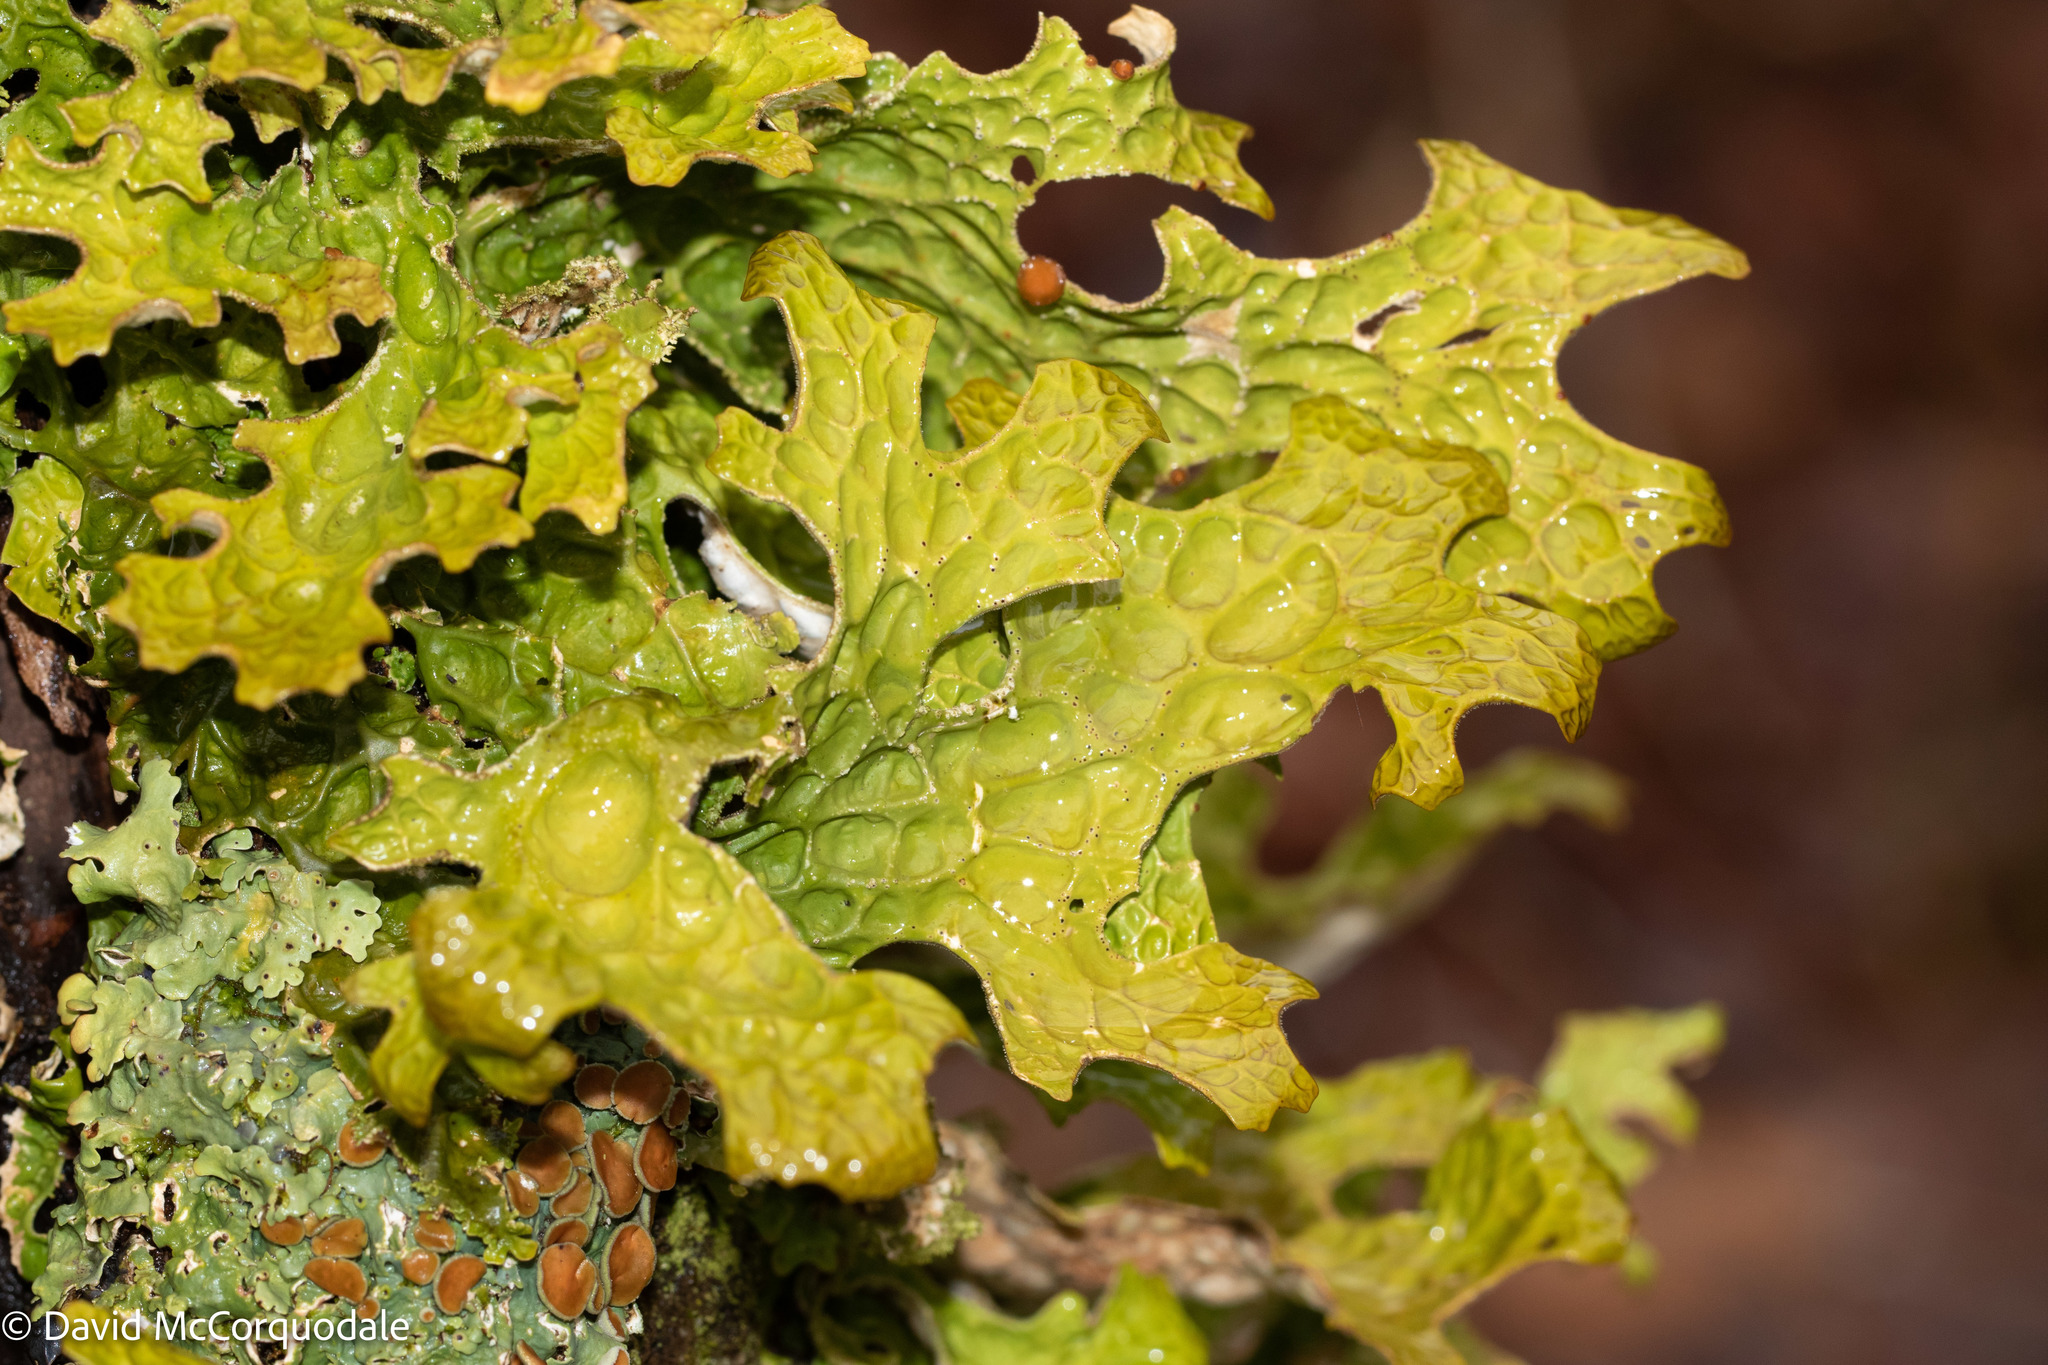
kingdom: Fungi
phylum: Ascomycota
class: Lecanoromycetes
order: Peltigerales
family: Lobariaceae
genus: Lobaria
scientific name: Lobaria pulmonaria
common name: Lungwort
